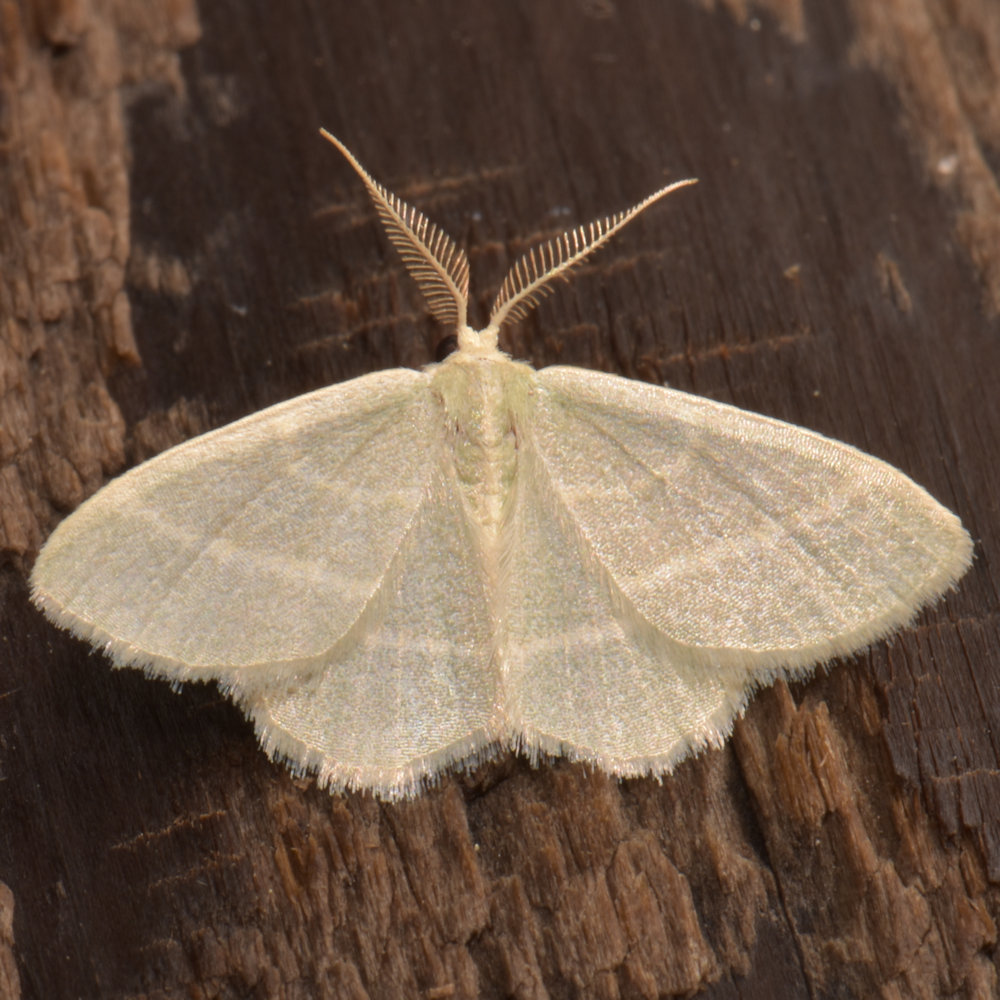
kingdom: Animalia
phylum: Arthropoda
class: Insecta
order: Lepidoptera
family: Geometridae
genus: Chlorochlamys
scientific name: Chlorochlamys chloroleucaria
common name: Blackberry looper
